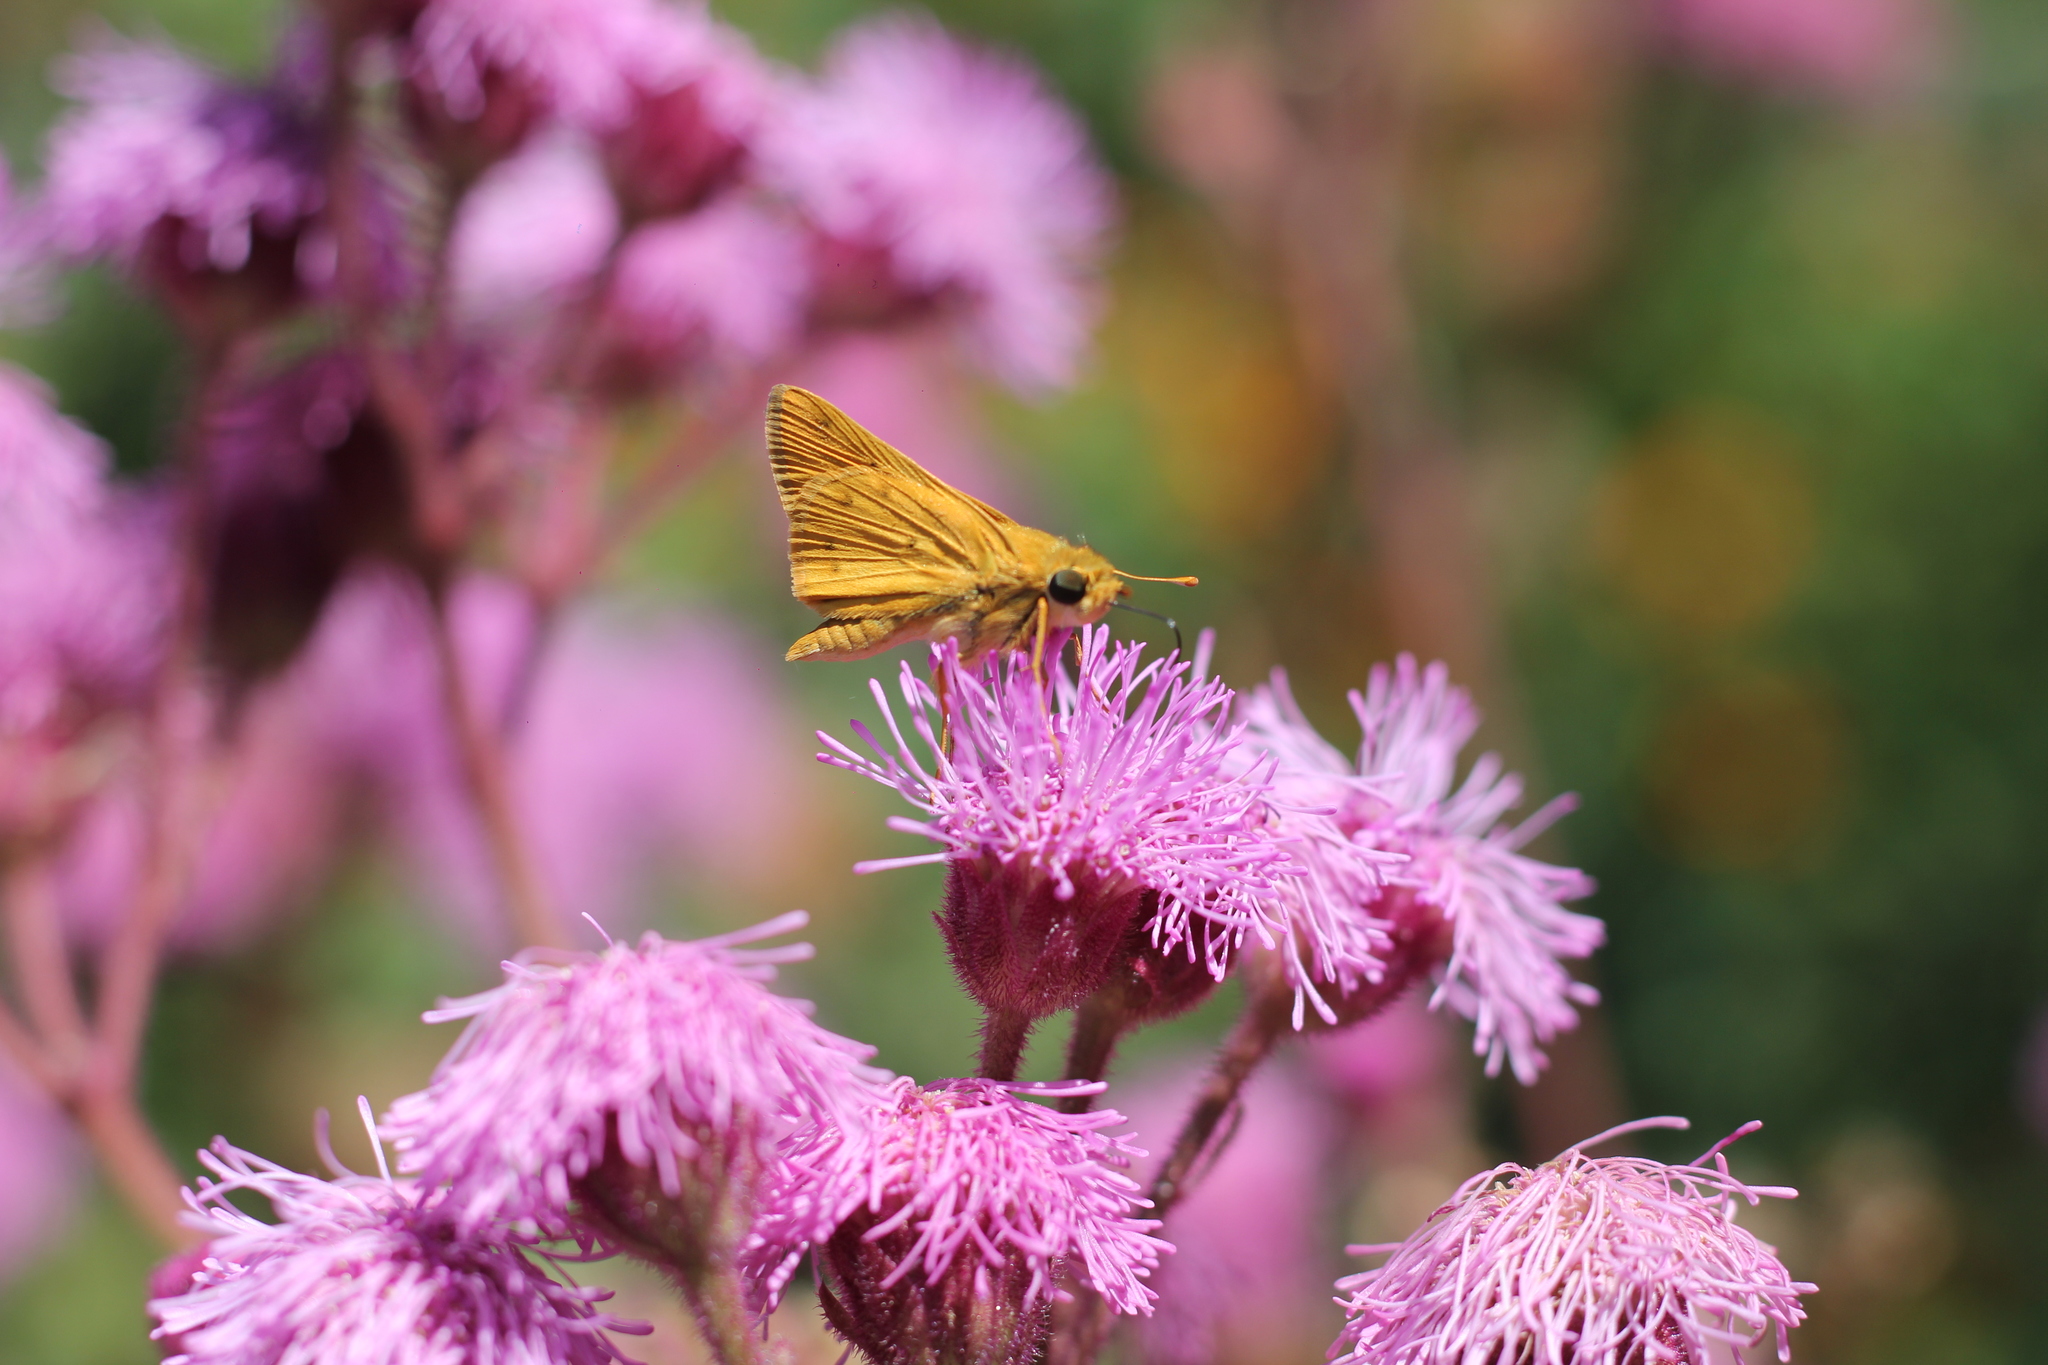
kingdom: Animalia
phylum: Arthropoda
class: Insecta
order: Lepidoptera
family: Hesperiidae
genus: Hylephila
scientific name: Hylephila phyleus
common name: Fiery skipper
